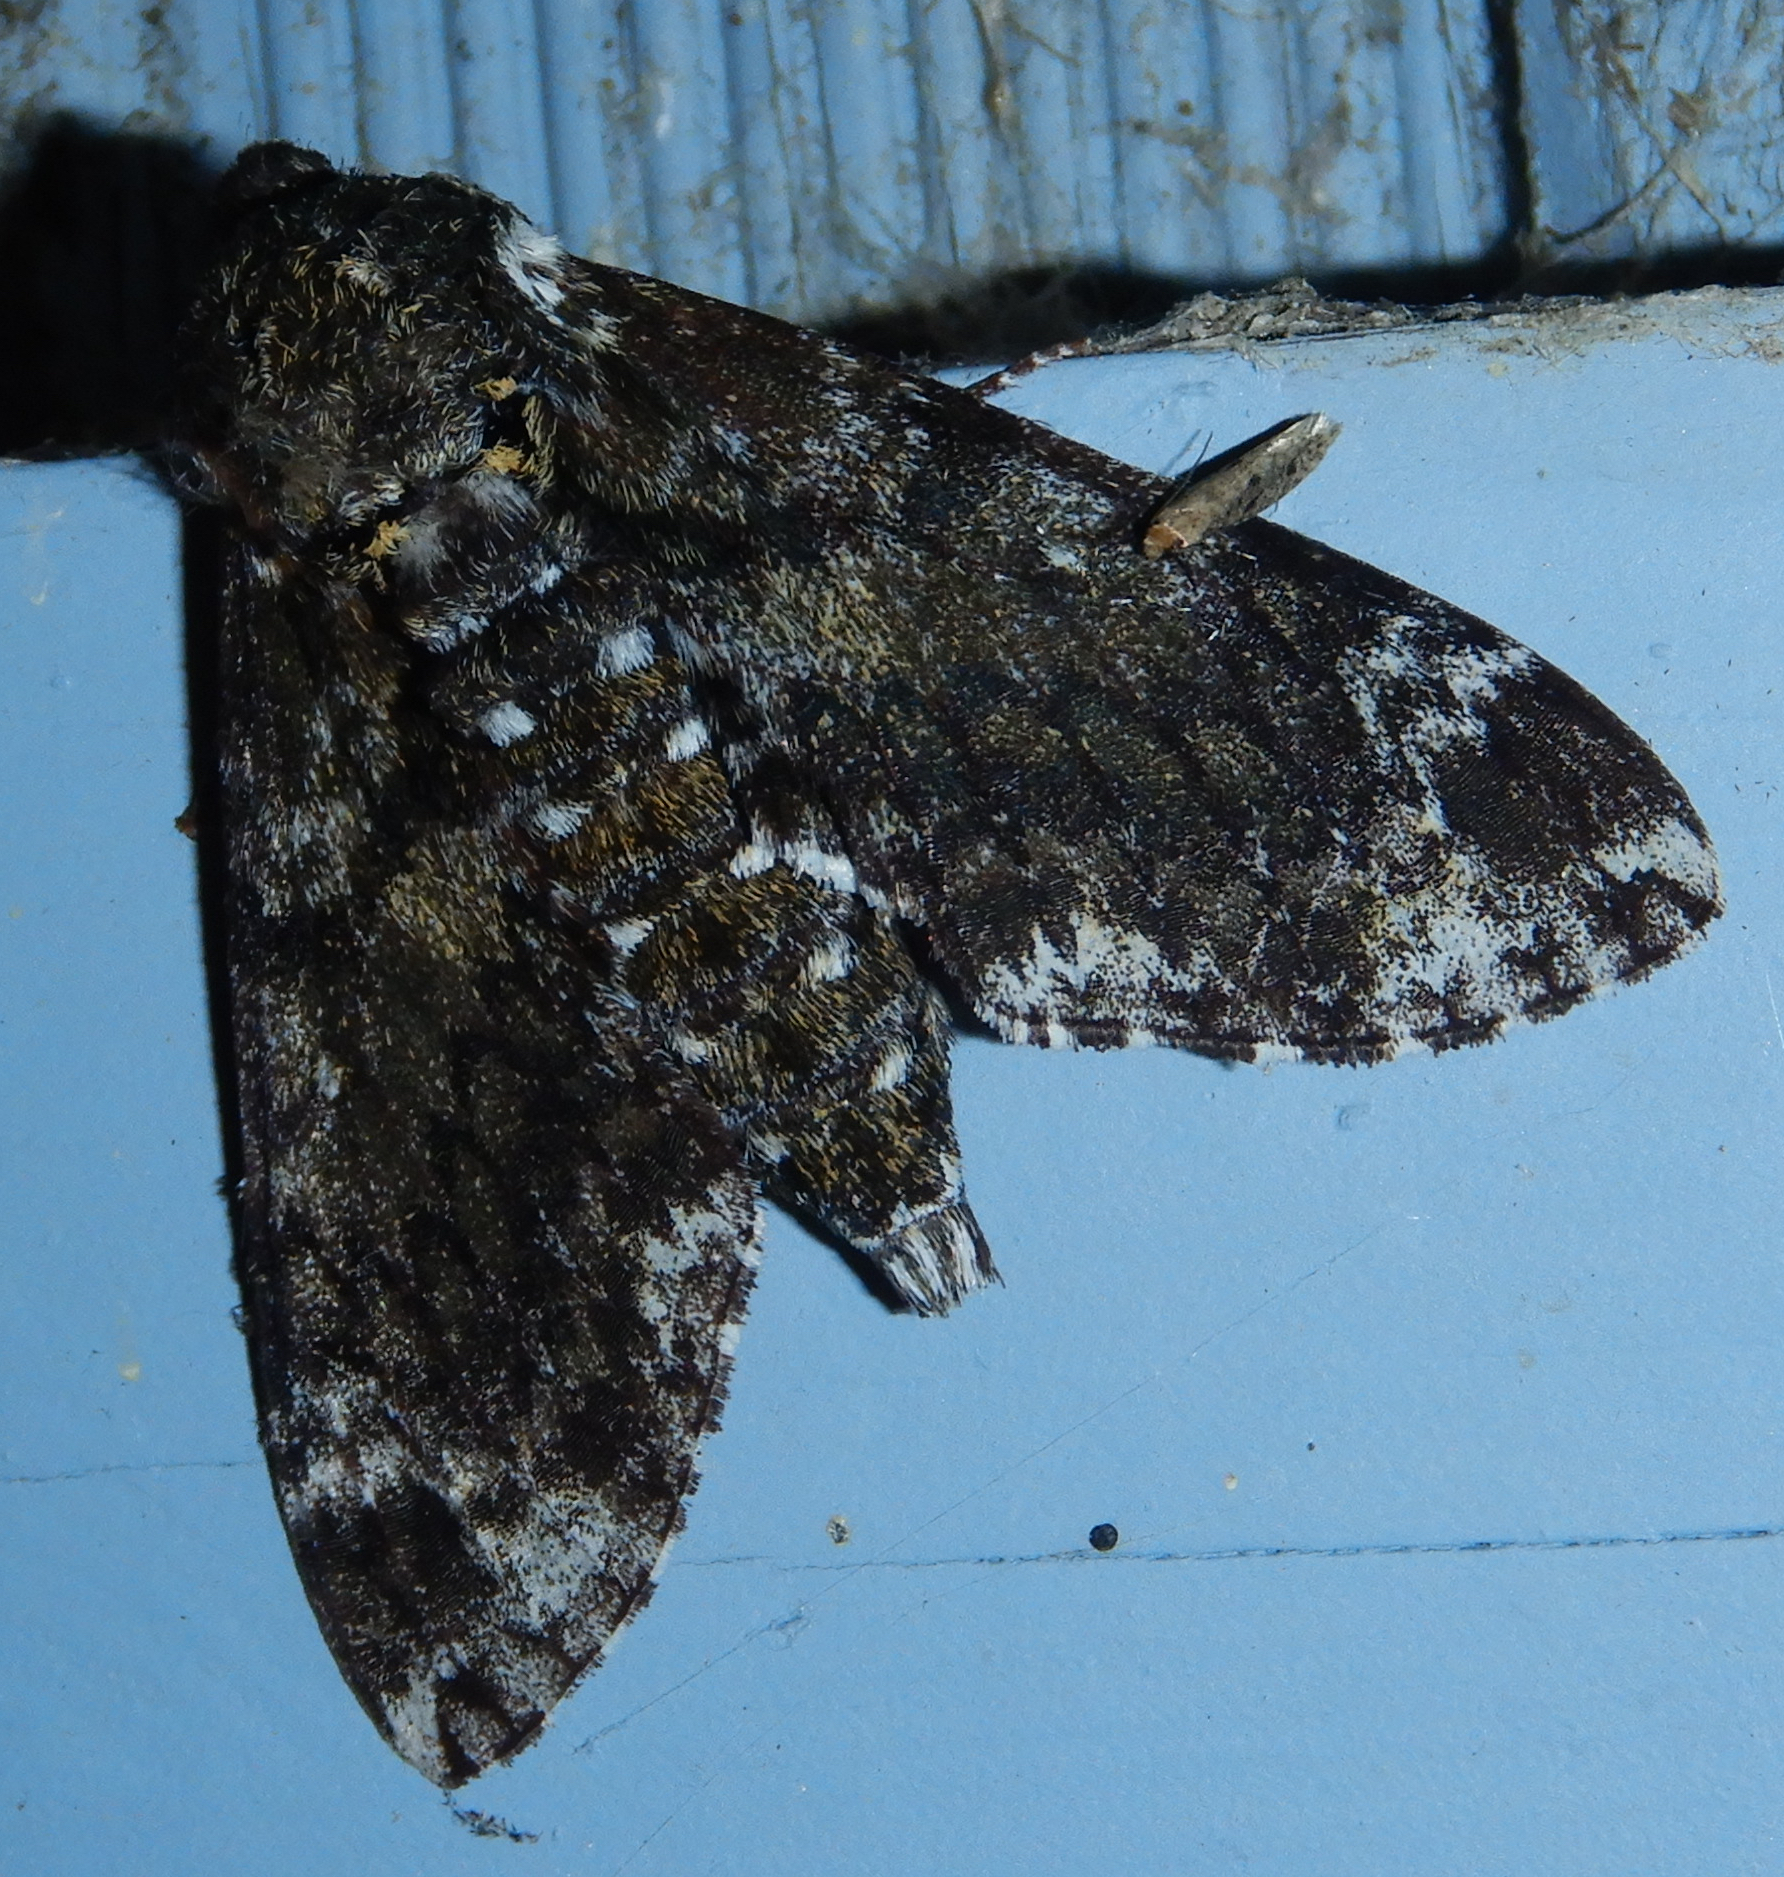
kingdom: Animalia
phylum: Arthropoda
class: Insecta
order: Lepidoptera
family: Sphingidae
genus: Dolba
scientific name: Dolba hyloeus
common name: Pawpaw sphinx
